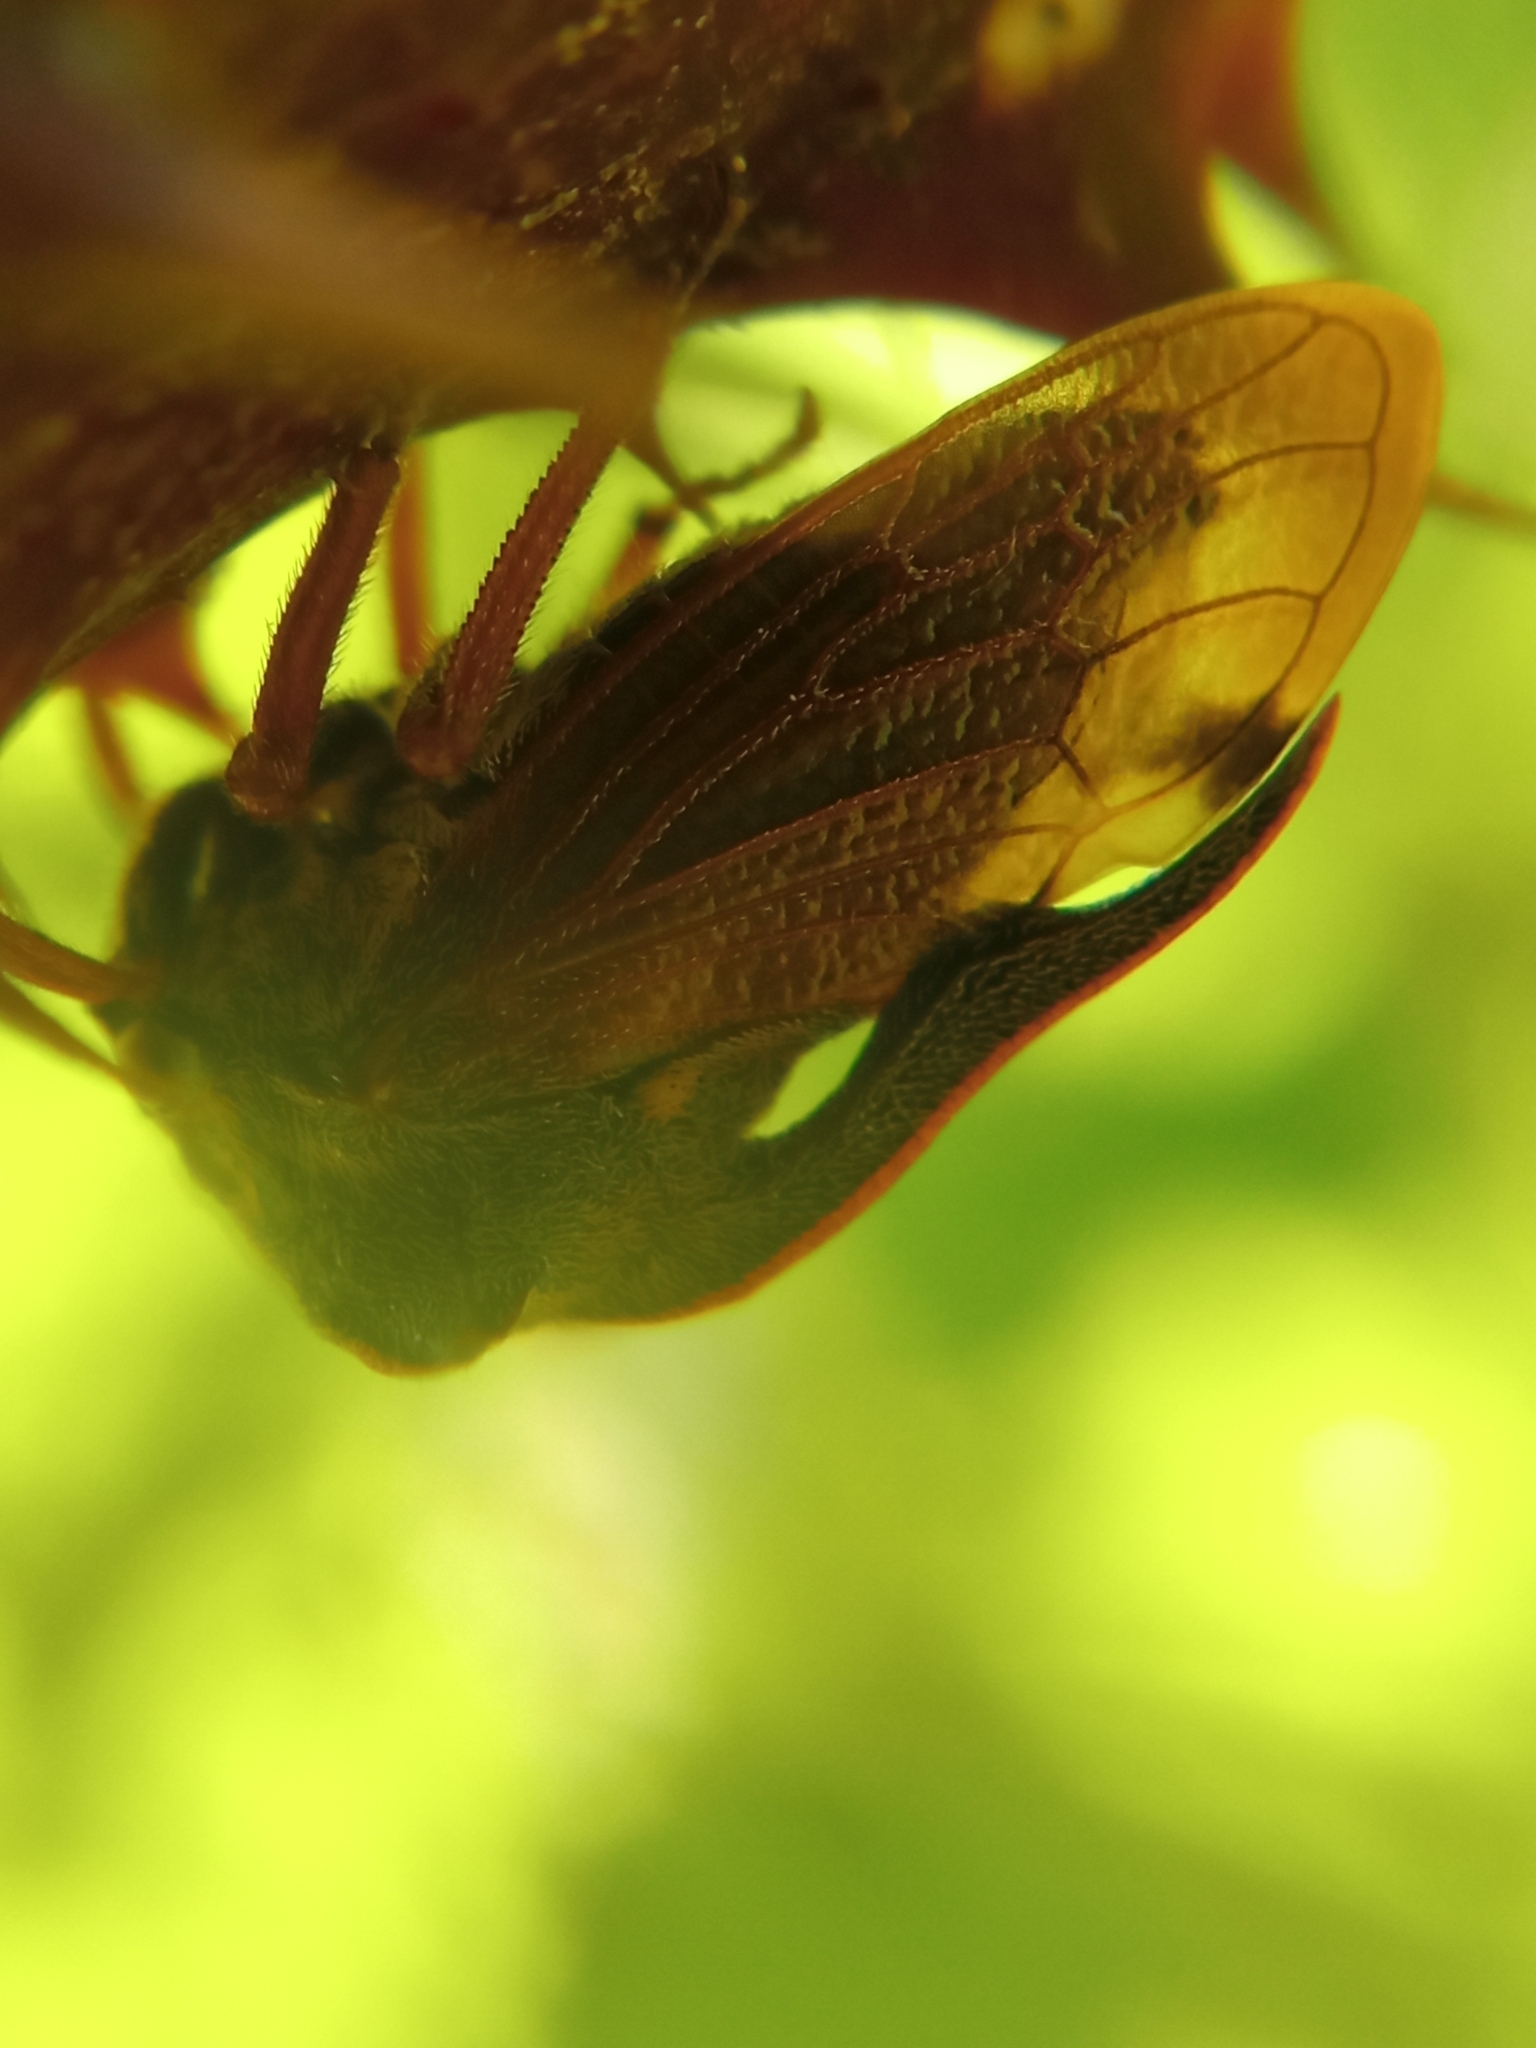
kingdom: Animalia
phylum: Arthropoda
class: Insecta
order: Hemiptera
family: Membracidae
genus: Centrotus
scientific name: Centrotus cornuta
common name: Treehopper
